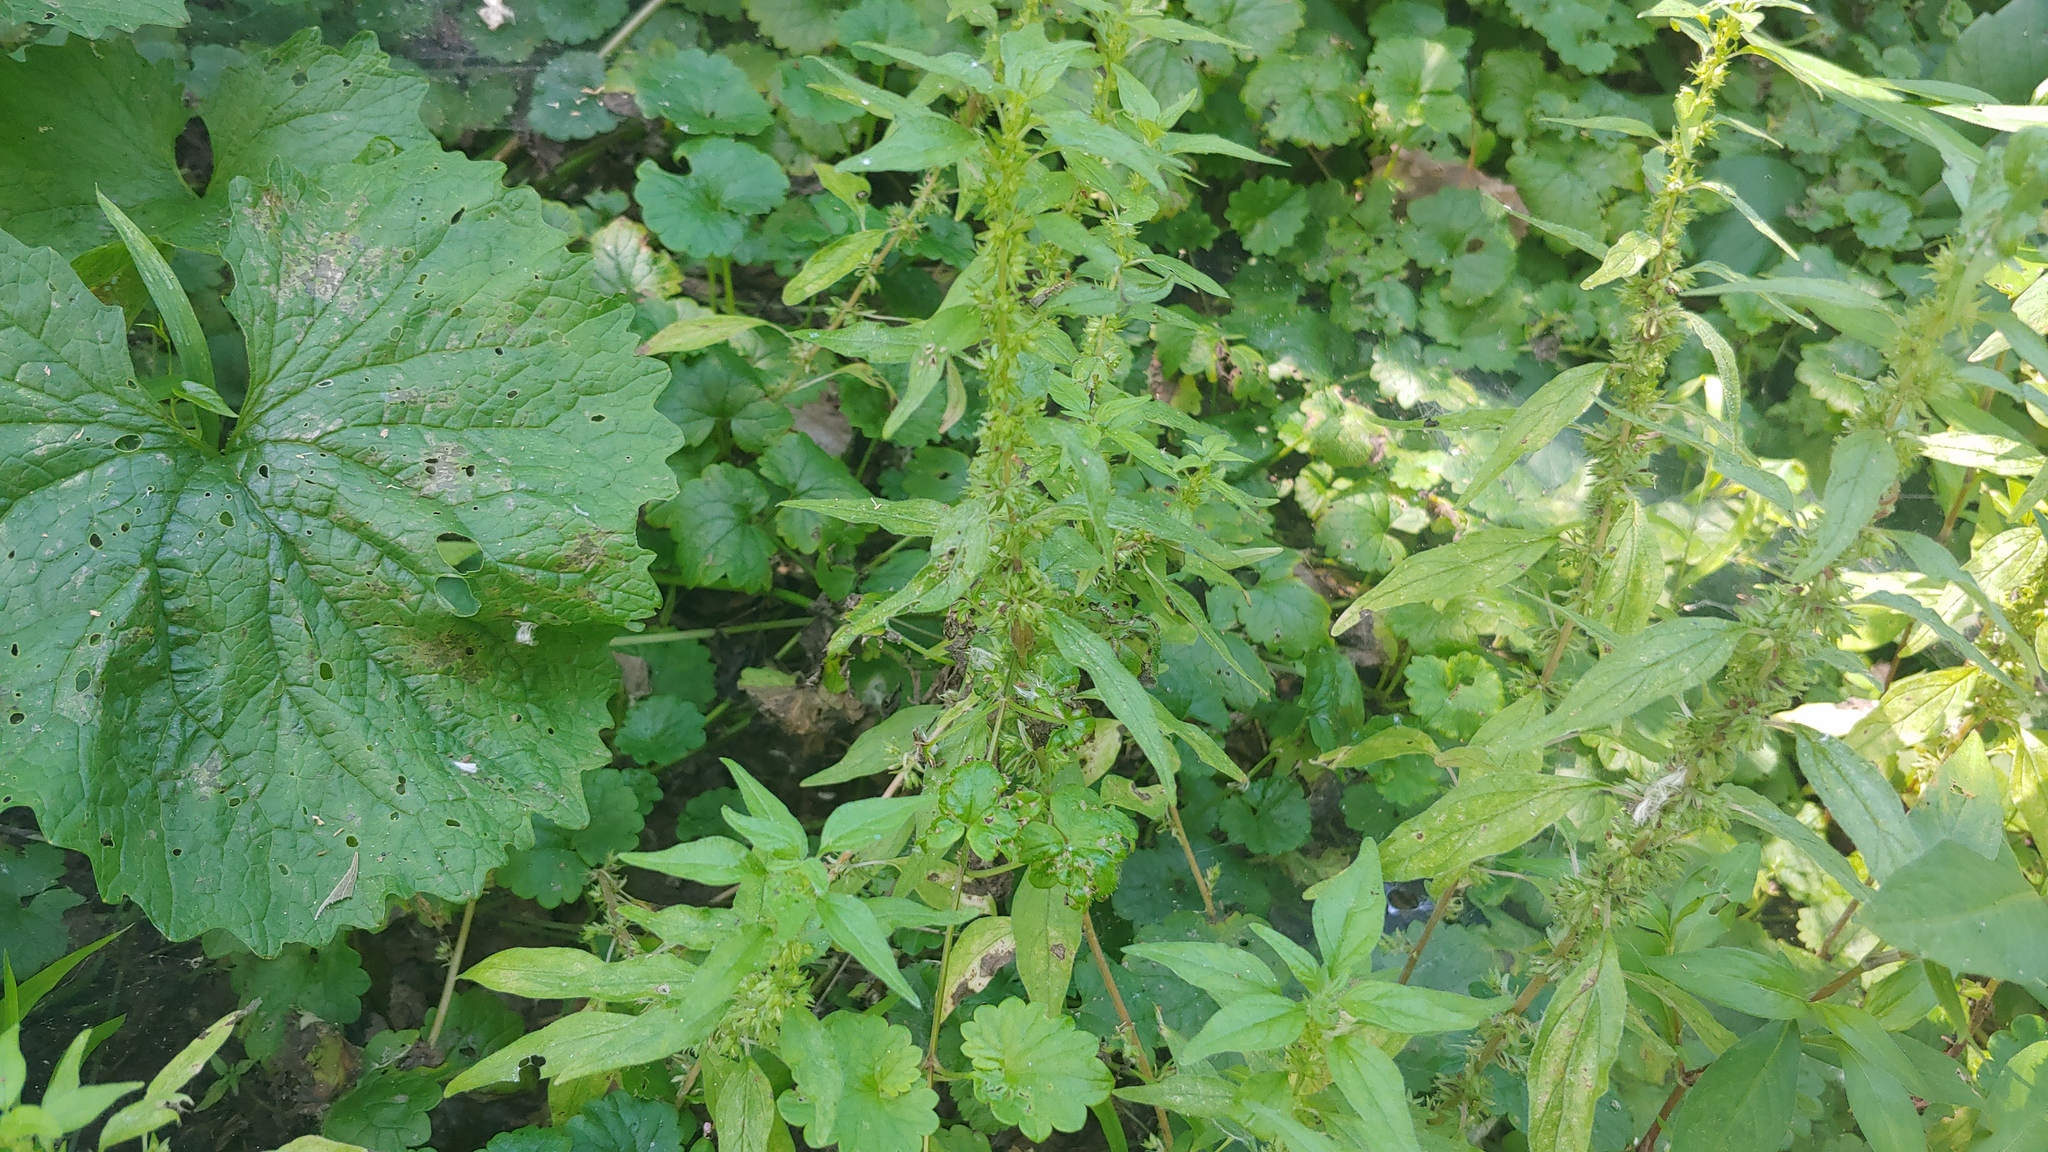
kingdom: Plantae
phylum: Tracheophyta
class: Magnoliopsida
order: Rosales
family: Urticaceae
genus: Parietaria
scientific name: Parietaria pensylvanica
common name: Pennsylvania pellitory
